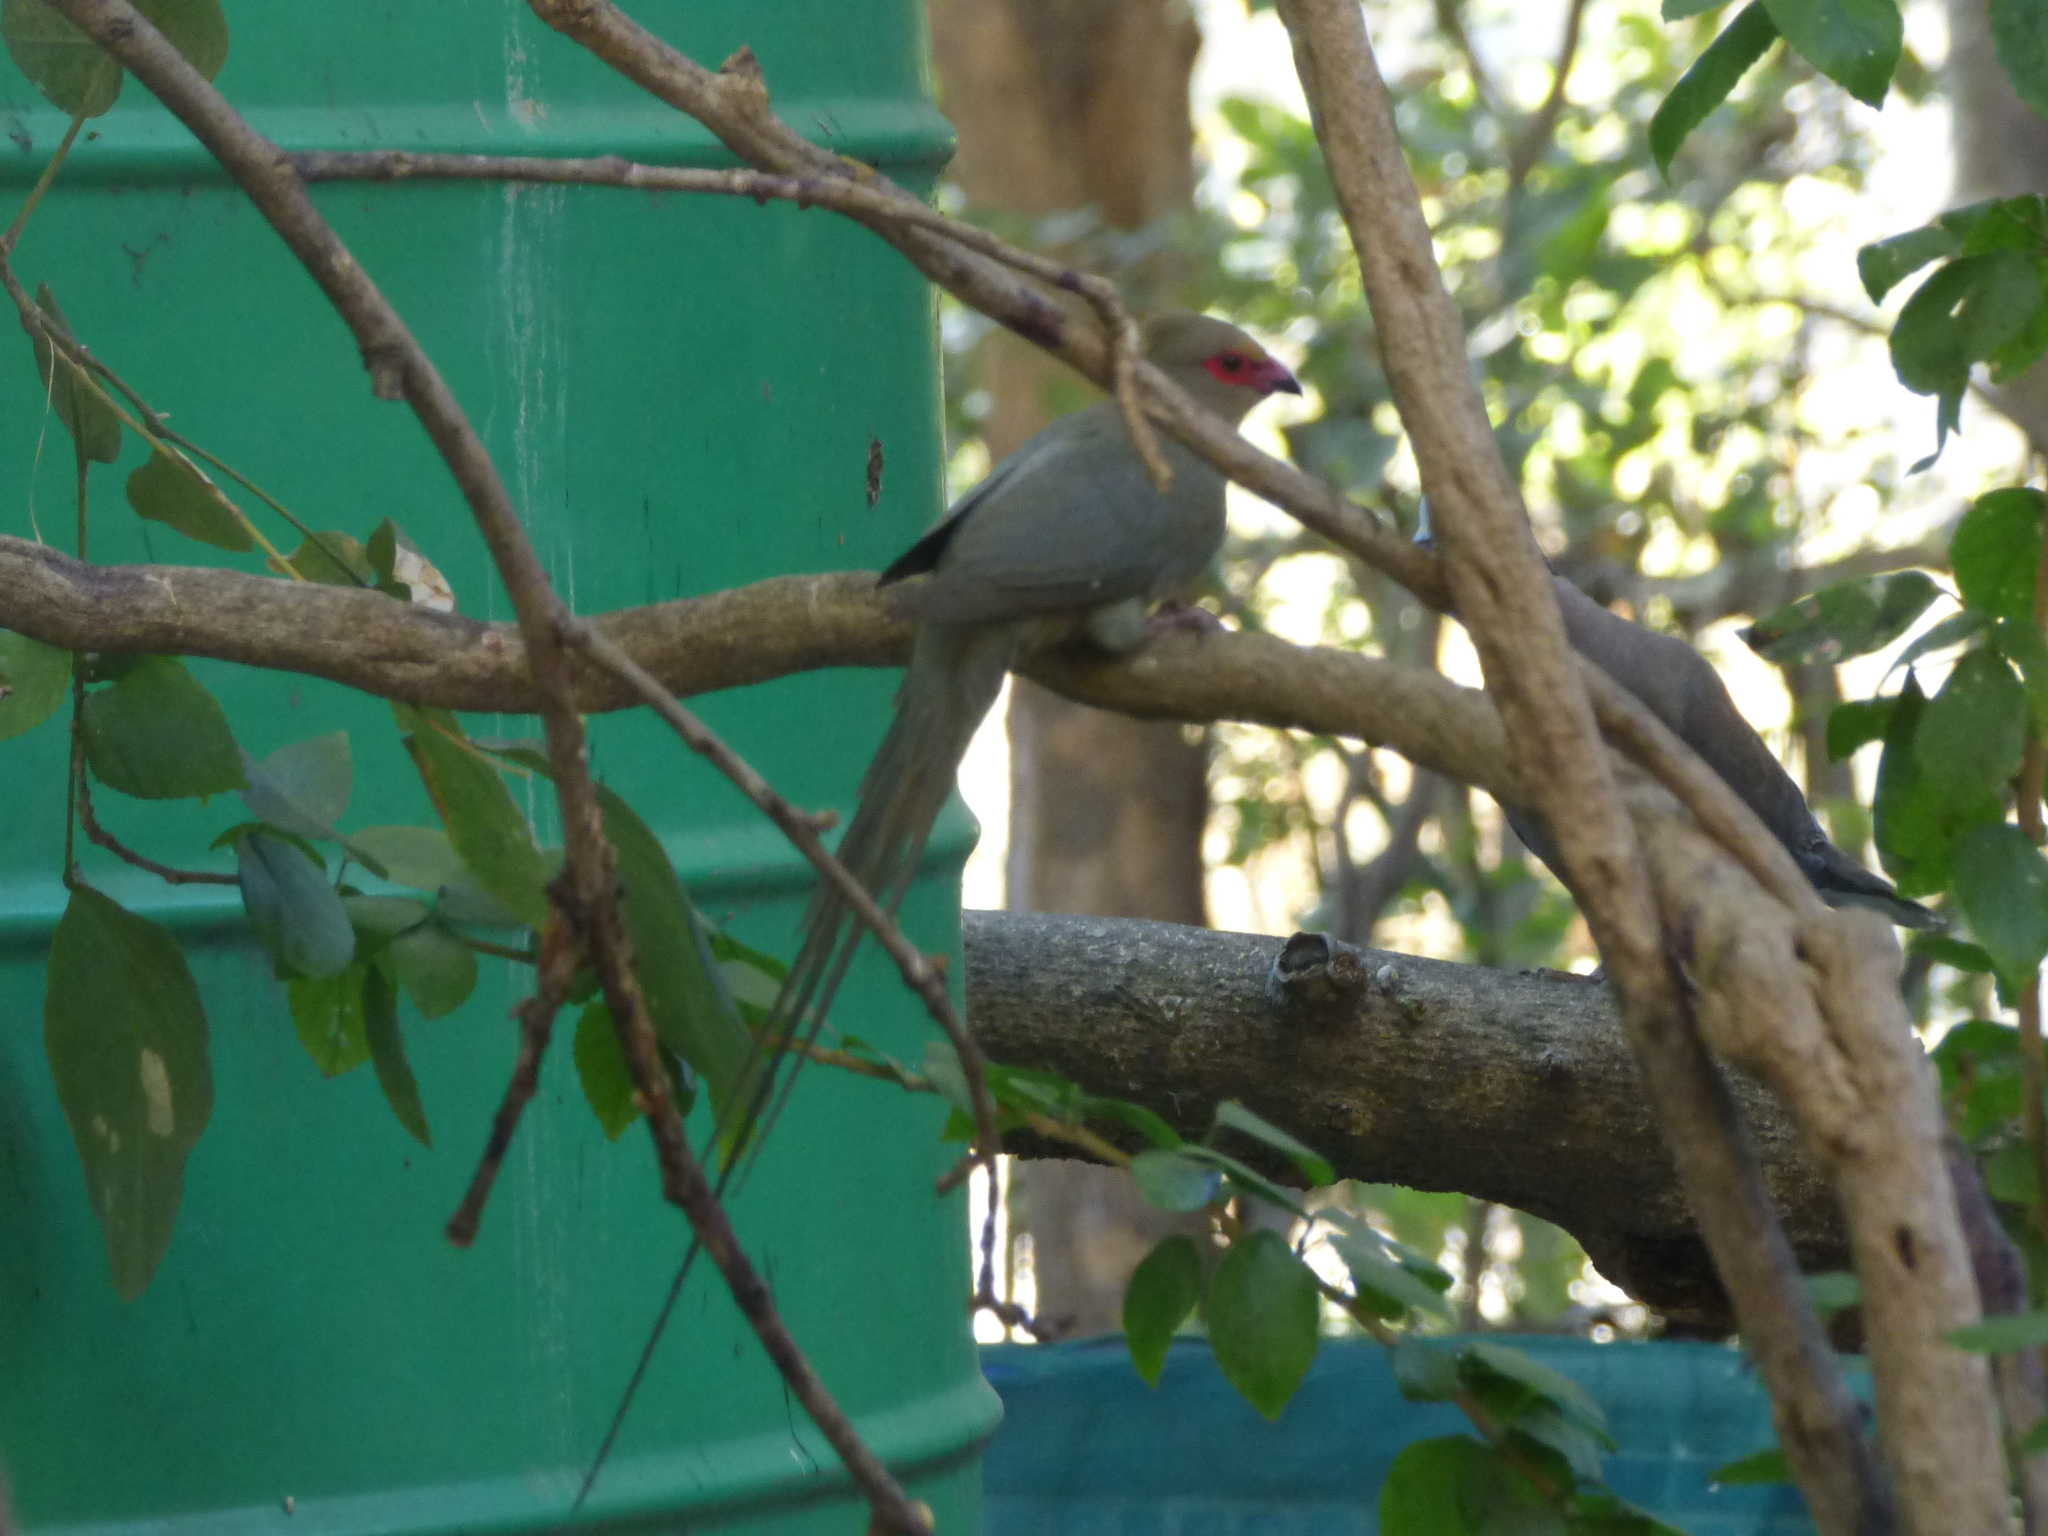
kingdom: Animalia
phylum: Chordata
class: Aves
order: Coliiformes
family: Coliidae
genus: Urocolius
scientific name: Urocolius indicus
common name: Red-faced mousebird
